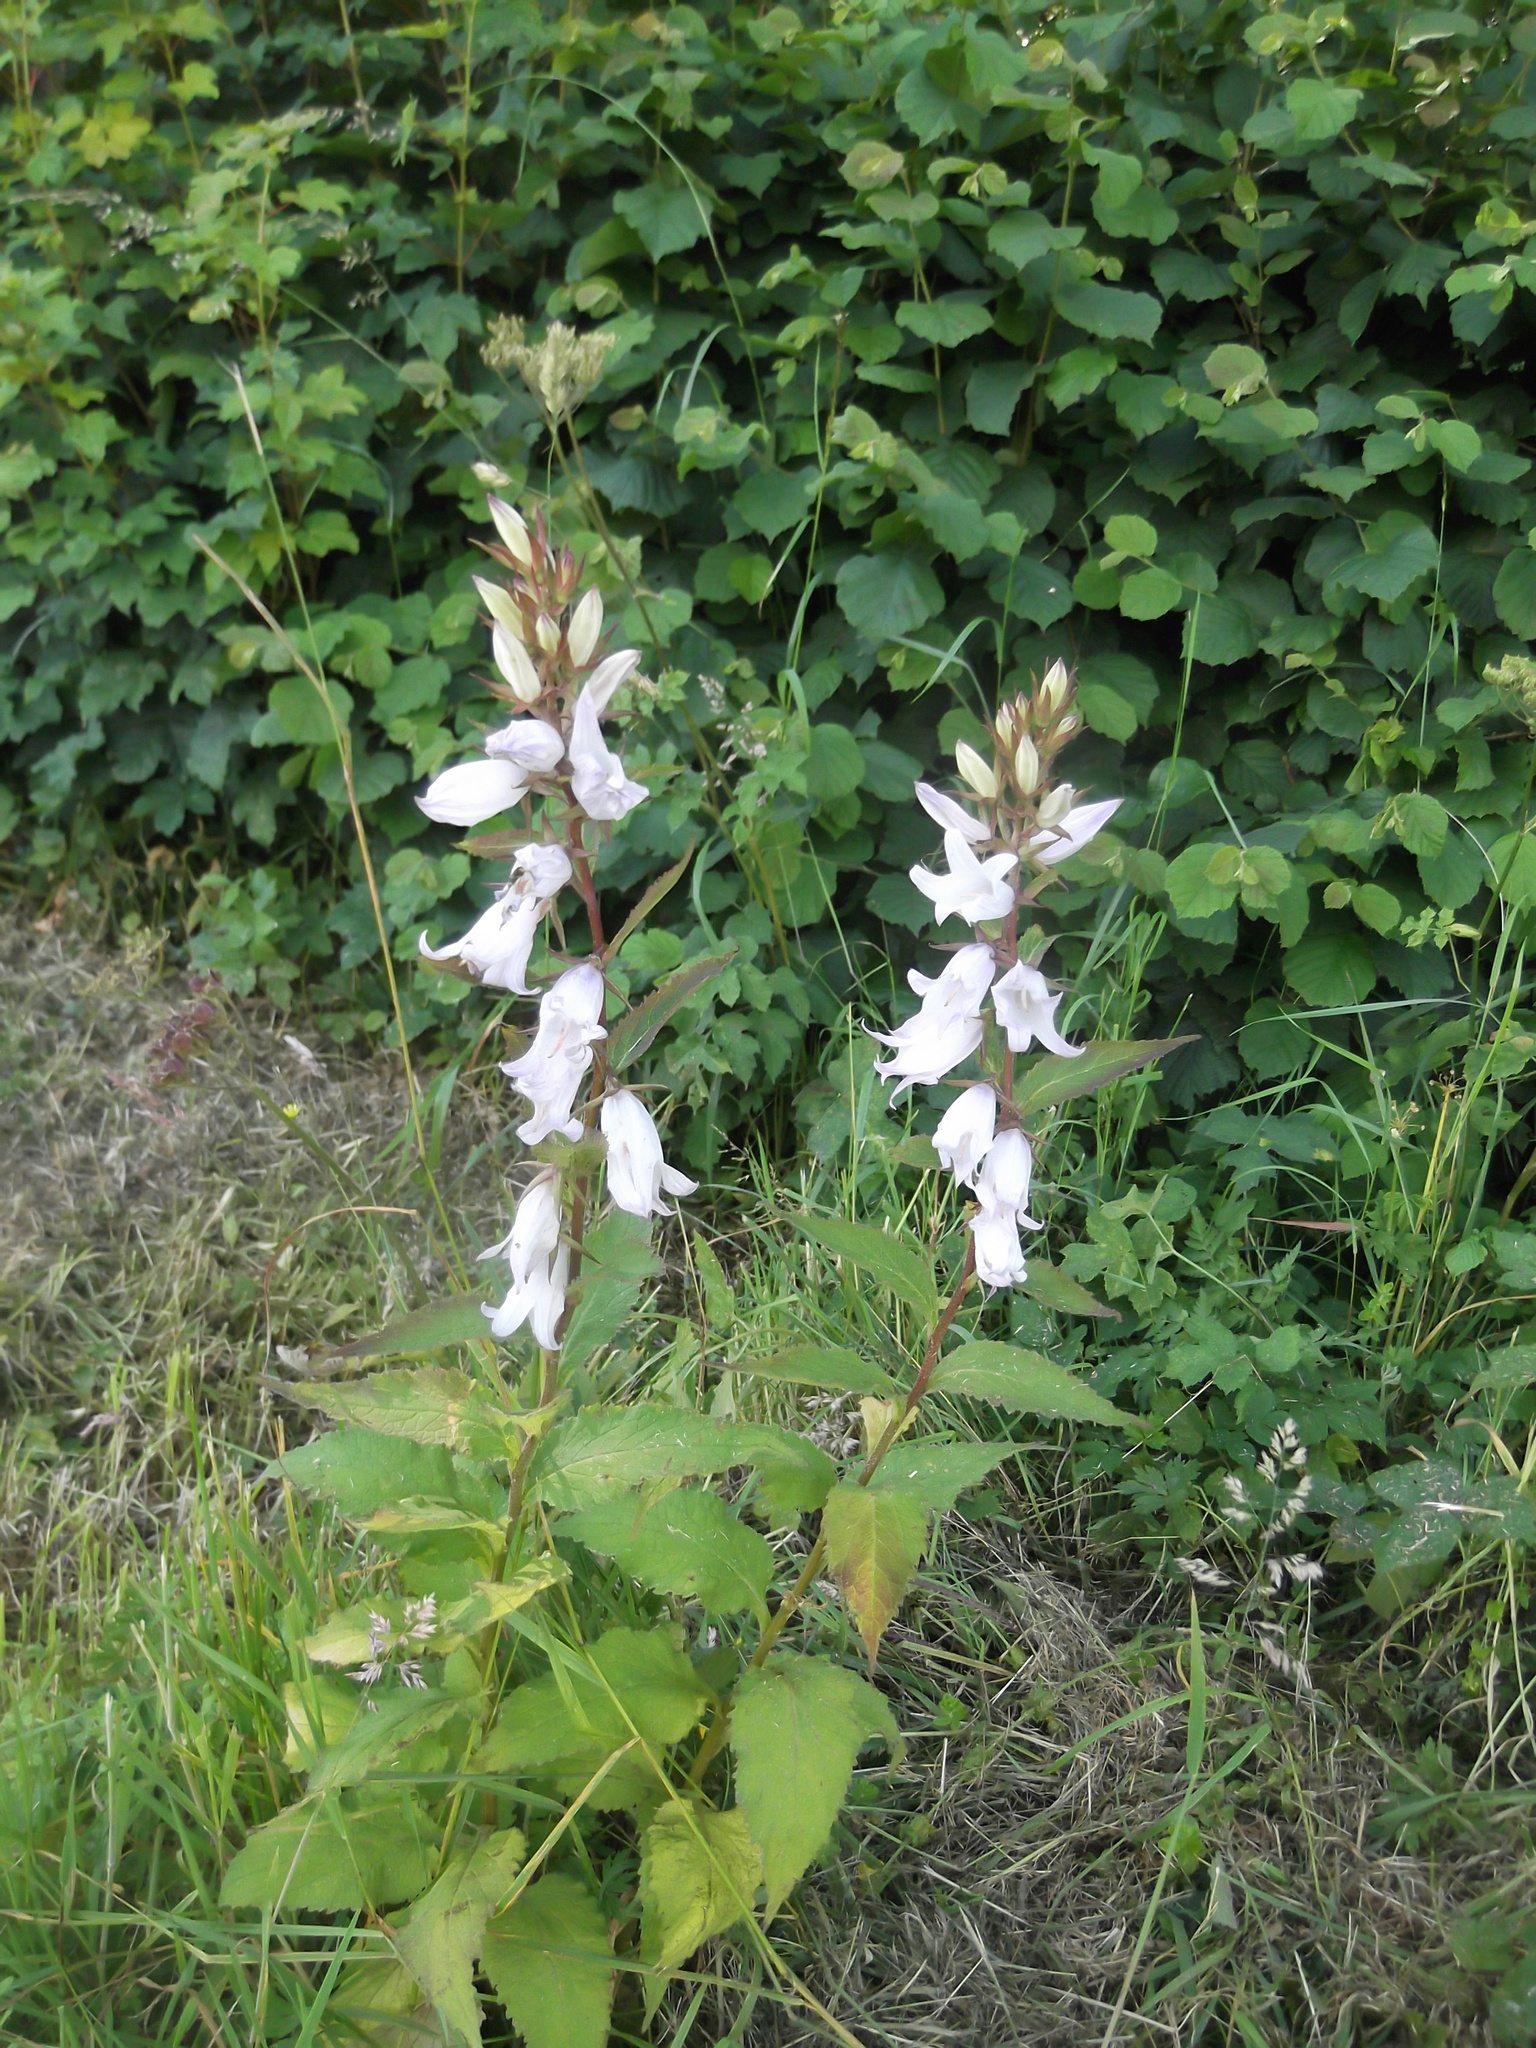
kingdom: Plantae
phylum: Tracheophyta
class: Magnoliopsida
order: Asterales
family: Campanulaceae
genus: Campanula
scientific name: Campanula latifolia
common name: Giant bellflower
